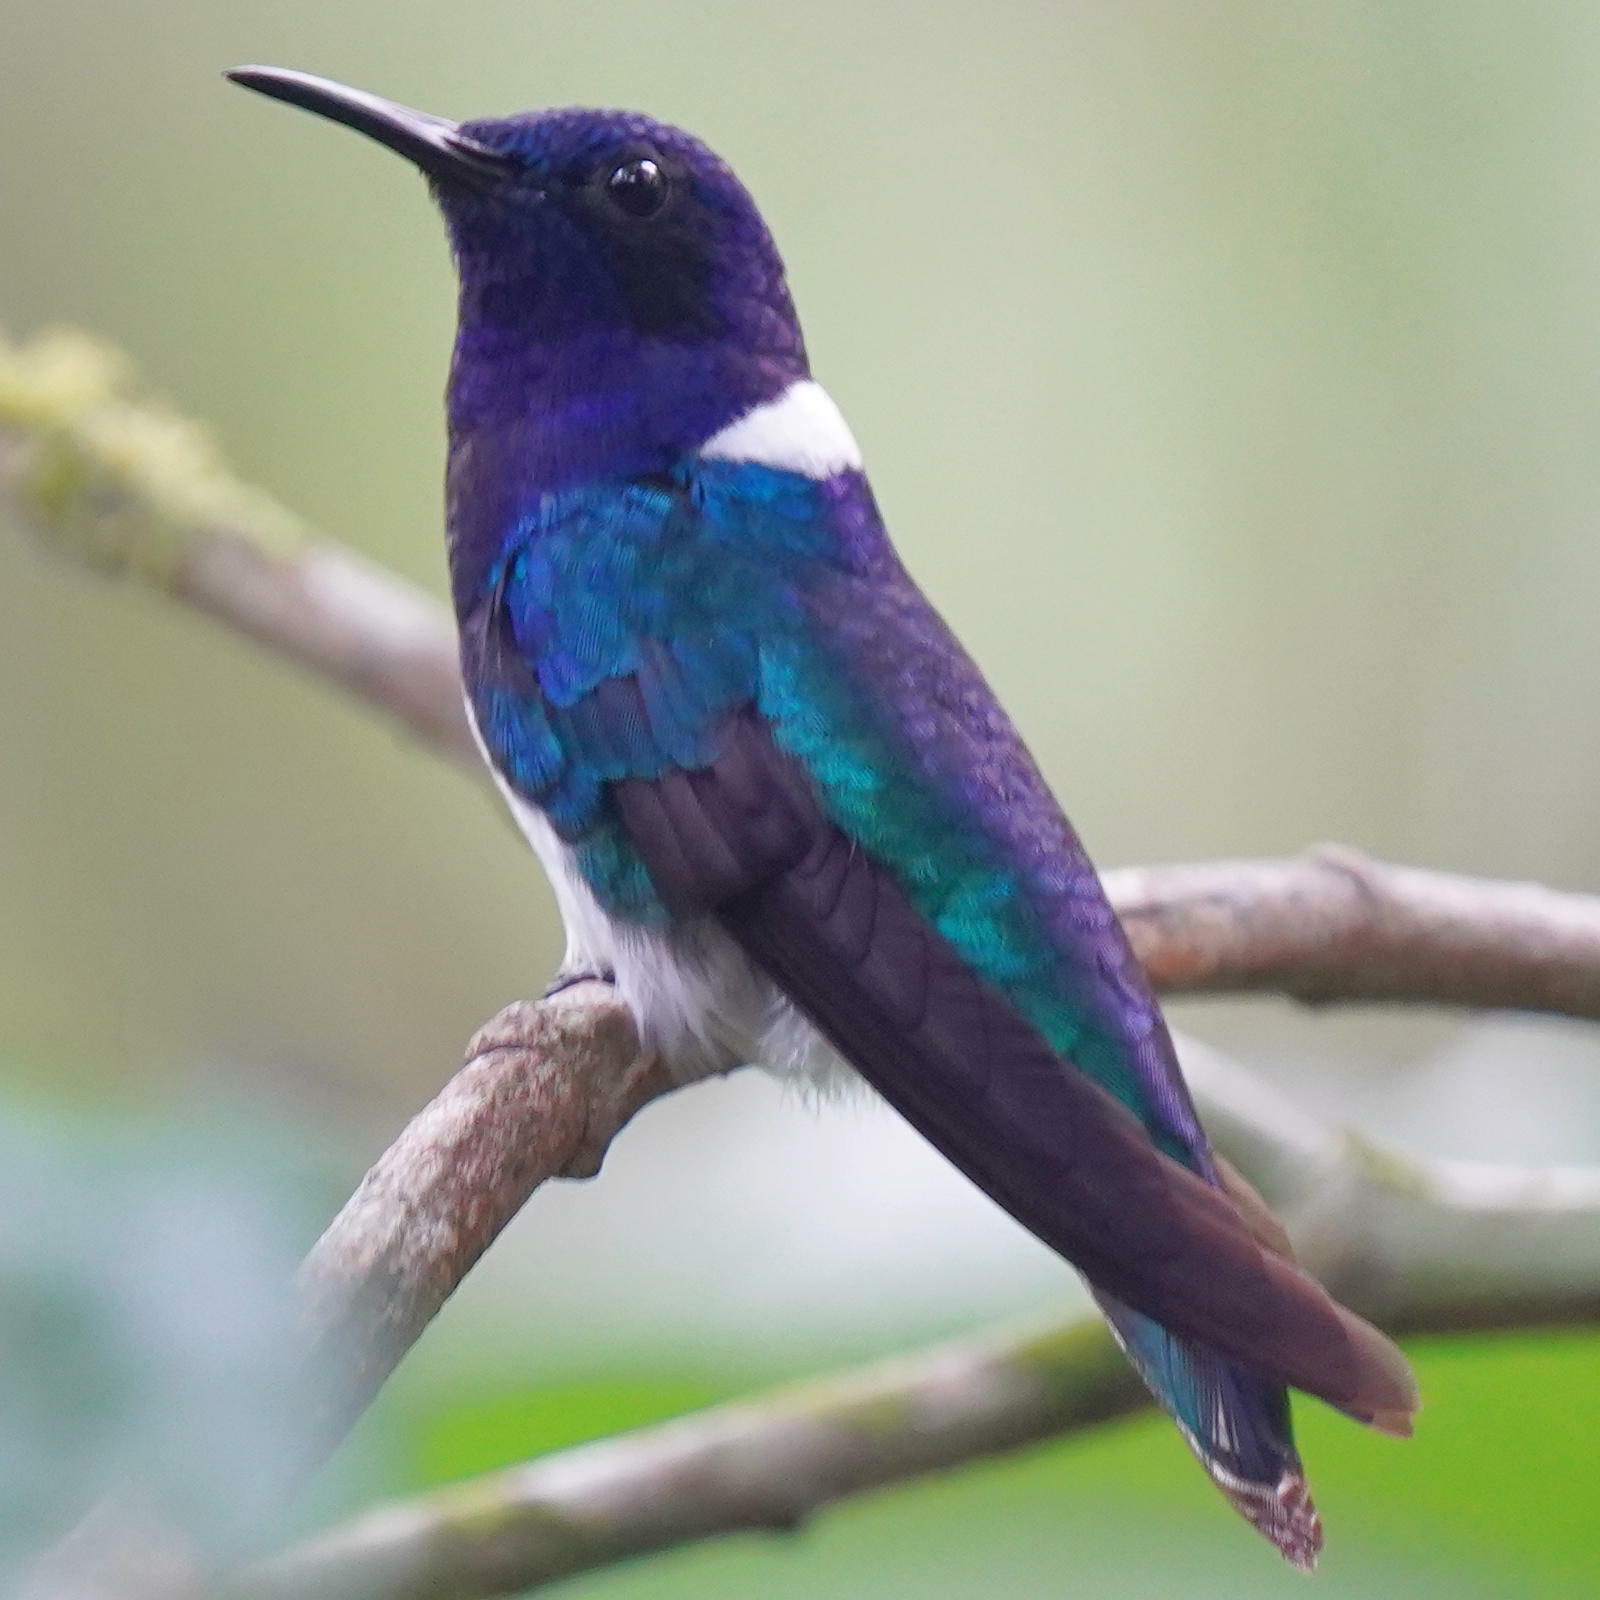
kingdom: Animalia
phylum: Chordata
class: Aves
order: Apodiformes
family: Trochilidae
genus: Florisuga
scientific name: Florisuga mellivora
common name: White-necked jacobin
